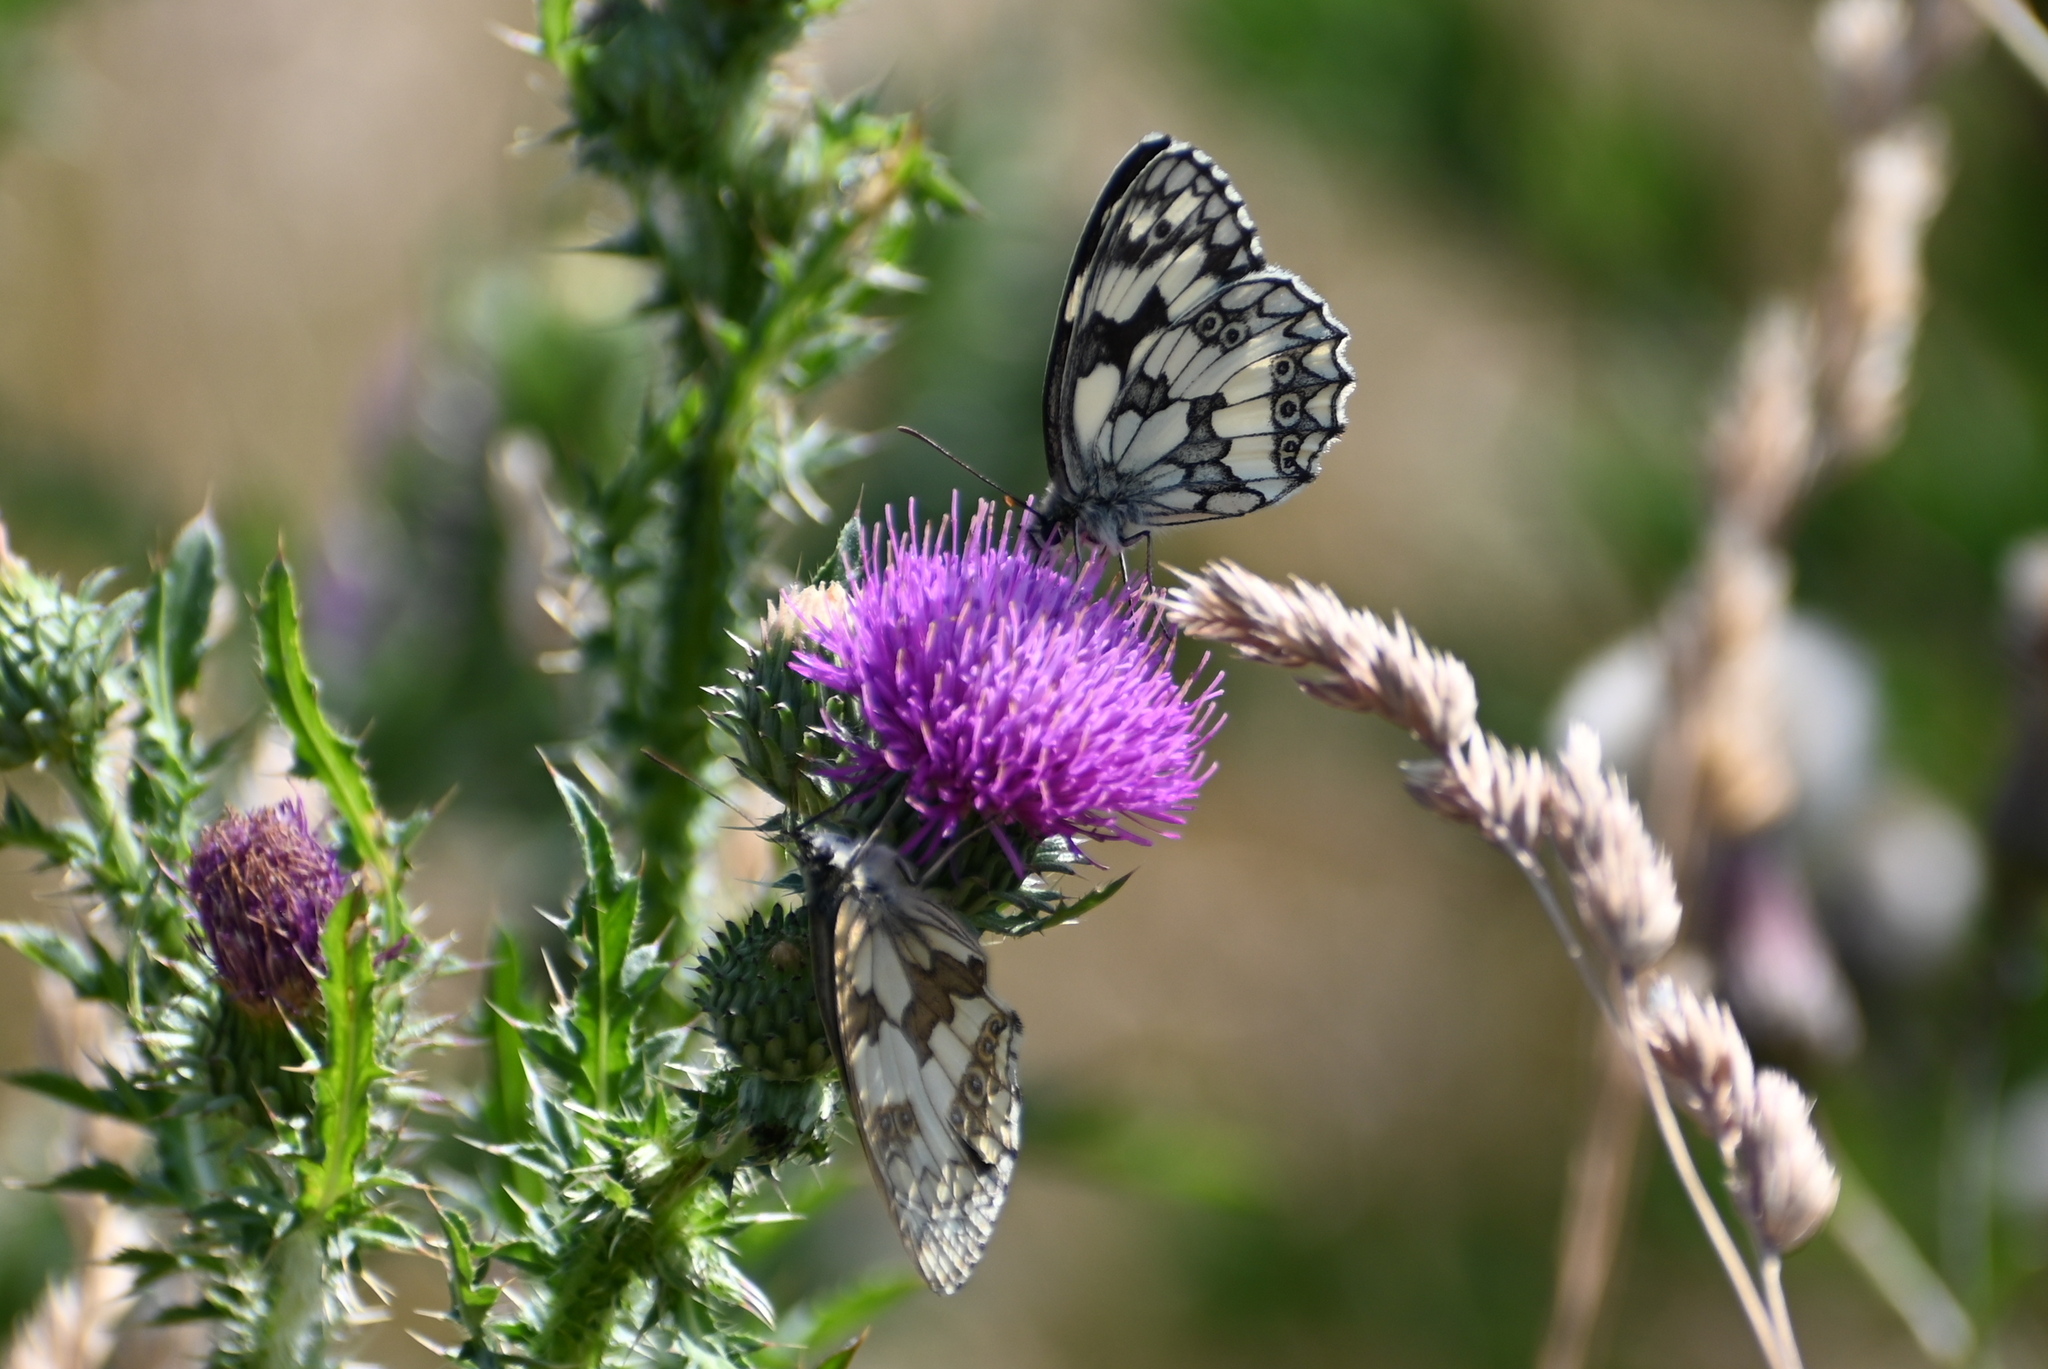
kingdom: Animalia
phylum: Arthropoda
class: Insecta
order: Lepidoptera
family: Nymphalidae
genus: Melanargia
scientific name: Melanargia galathea
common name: Marbled white
